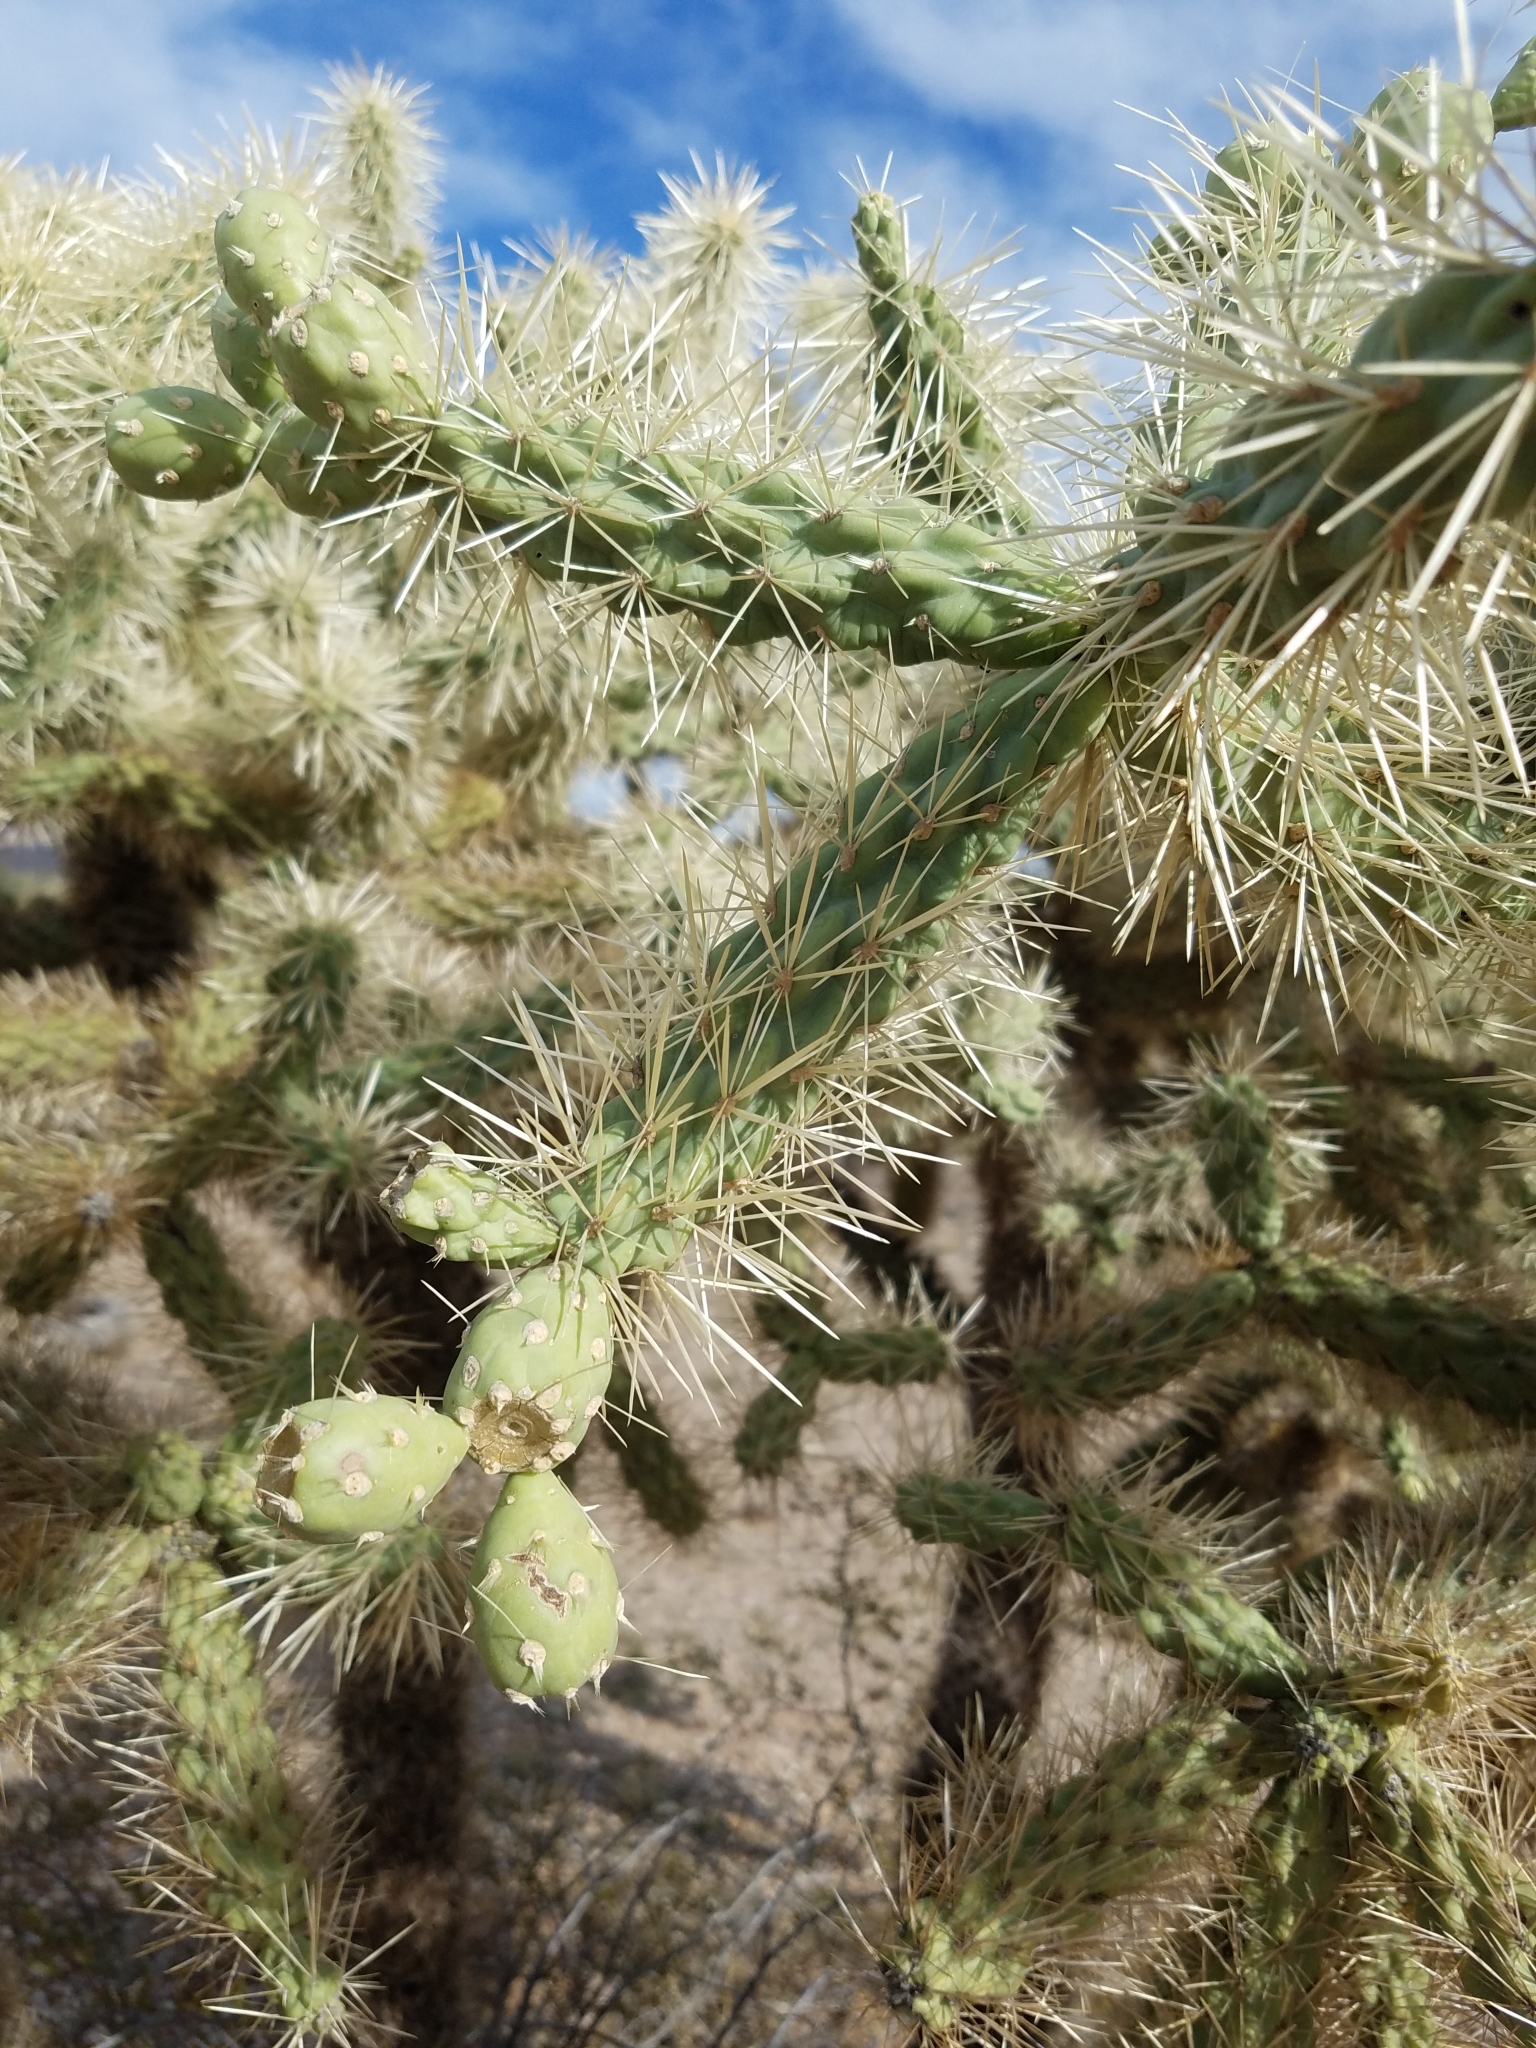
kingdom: Plantae
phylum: Tracheophyta
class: Magnoliopsida
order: Caryophyllales
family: Cactaceae
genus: Cylindropuntia
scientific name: Cylindropuntia fulgida
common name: Jumping cholla
